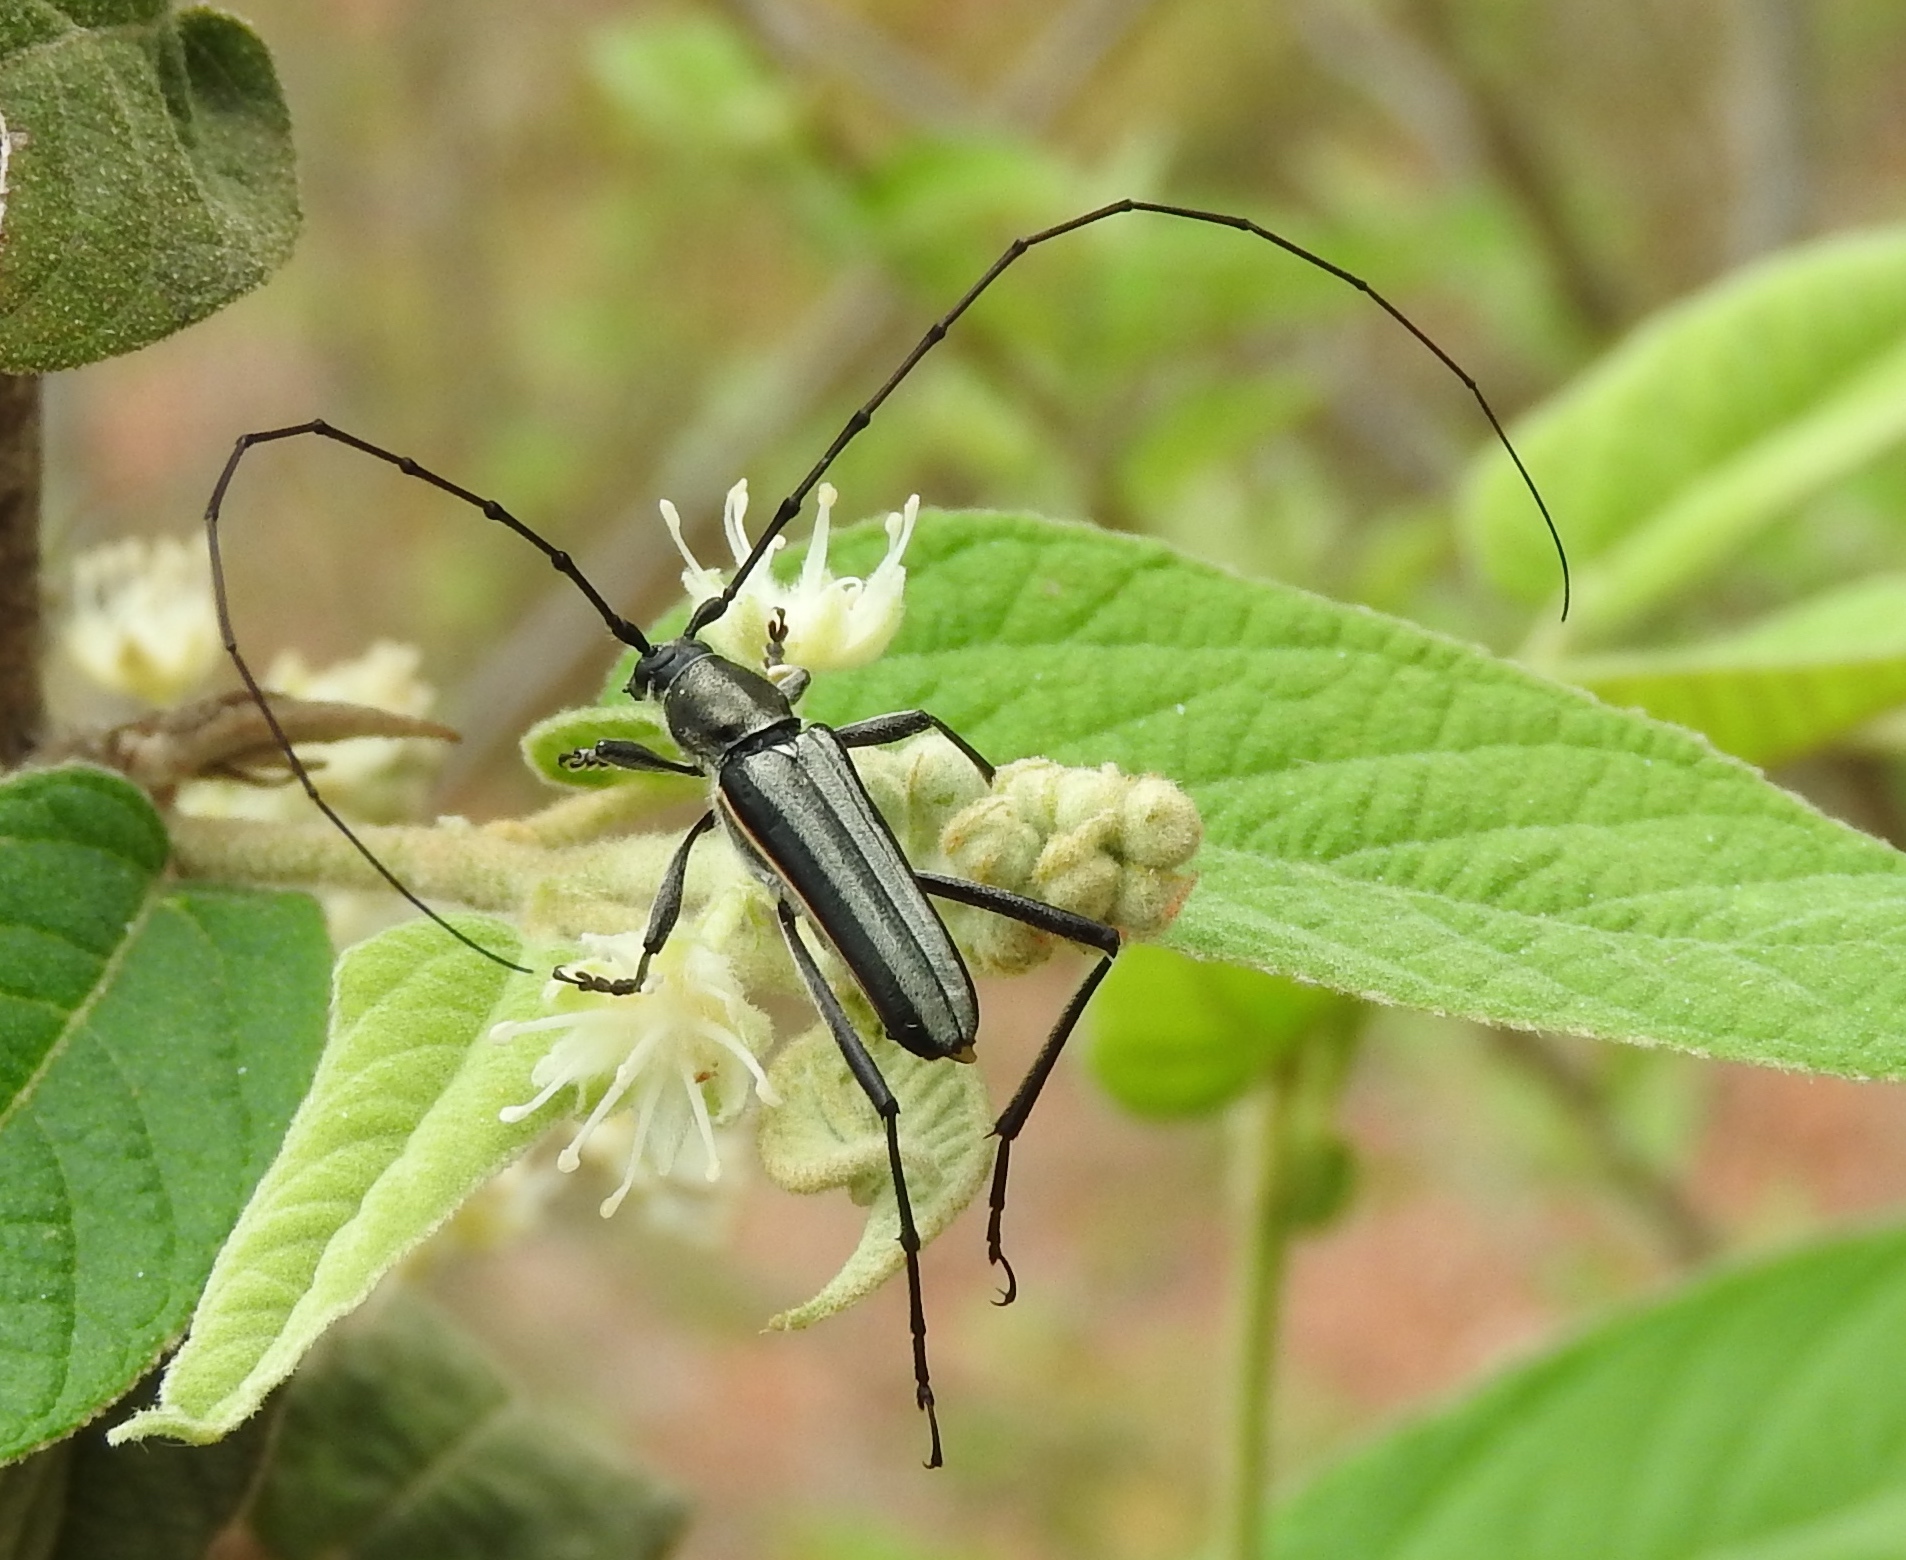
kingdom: Animalia
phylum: Arthropoda
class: Insecta
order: Coleoptera
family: Cerambycidae
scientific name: Cerambycidae
